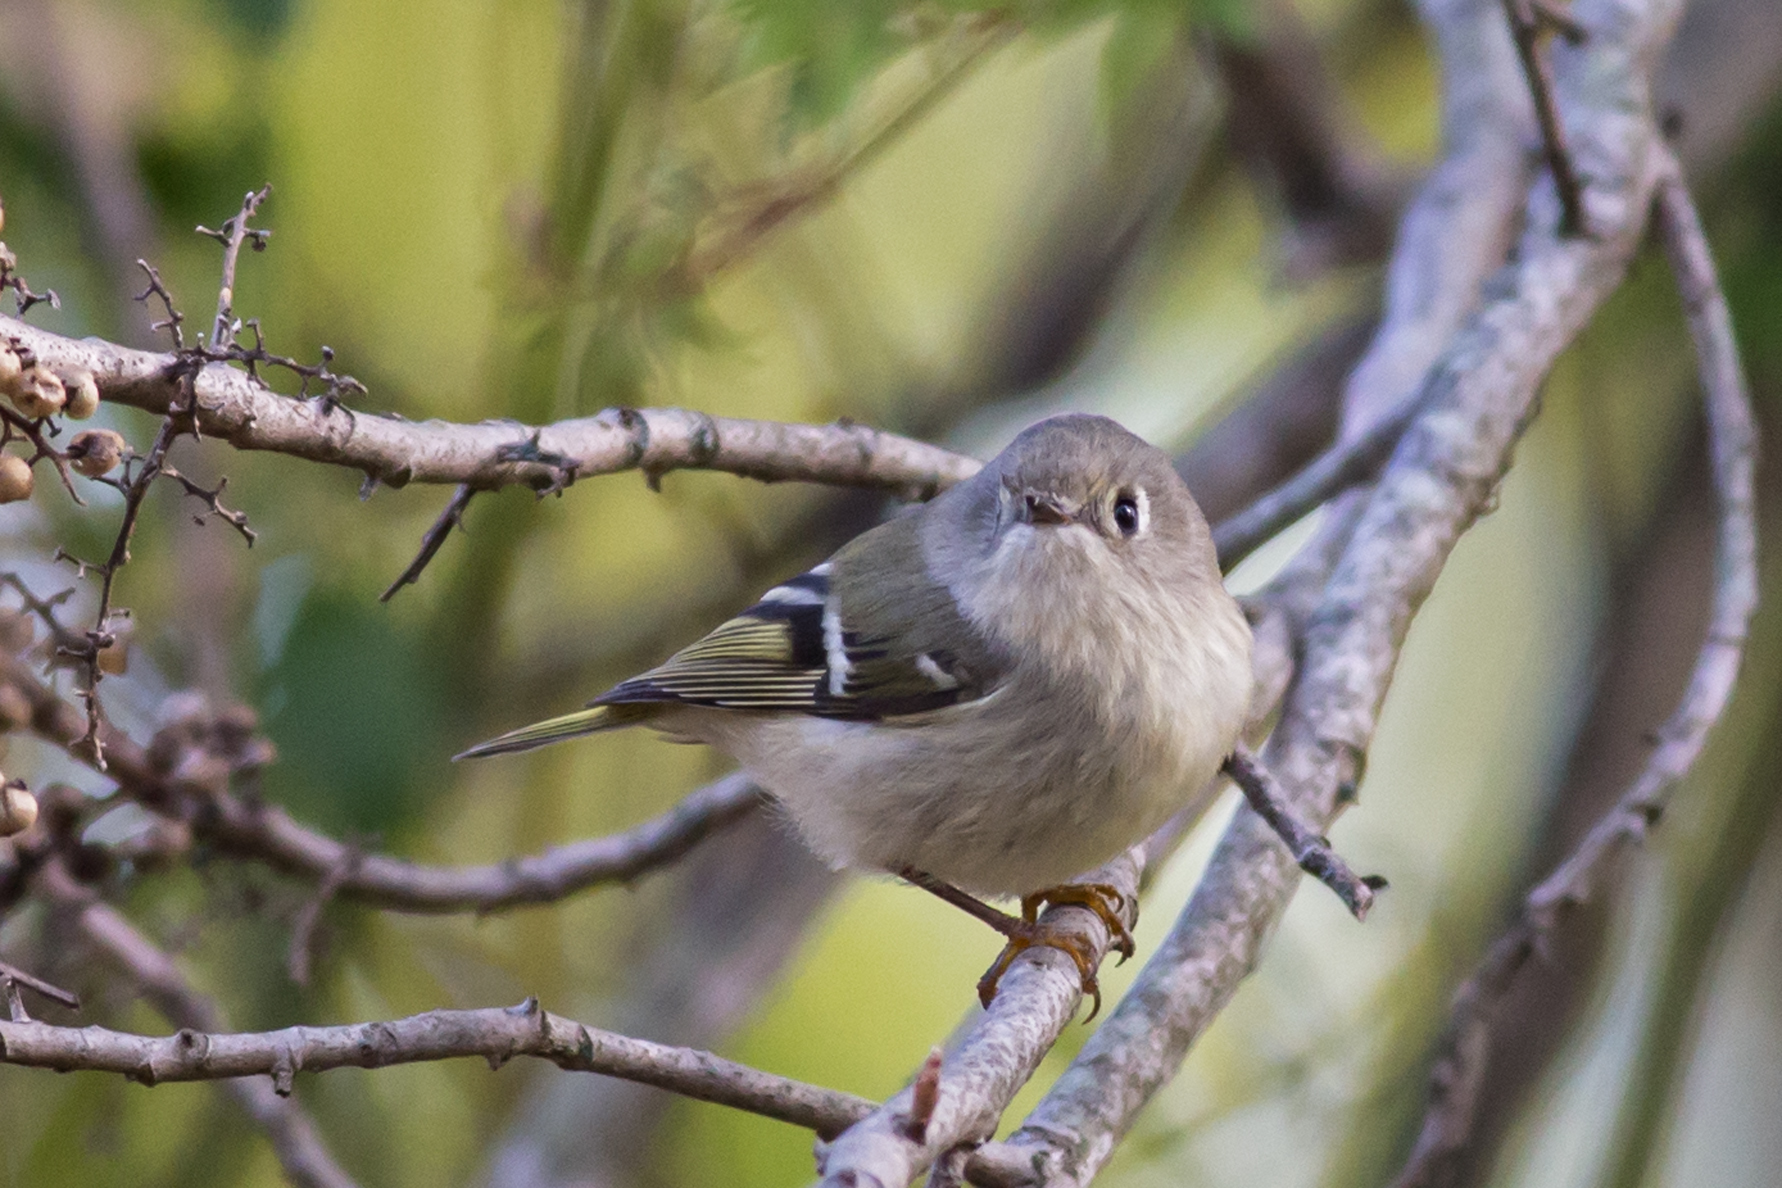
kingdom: Animalia
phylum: Chordata
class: Aves
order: Passeriformes
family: Regulidae
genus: Regulus
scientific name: Regulus calendula
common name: Ruby-crowned kinglet
